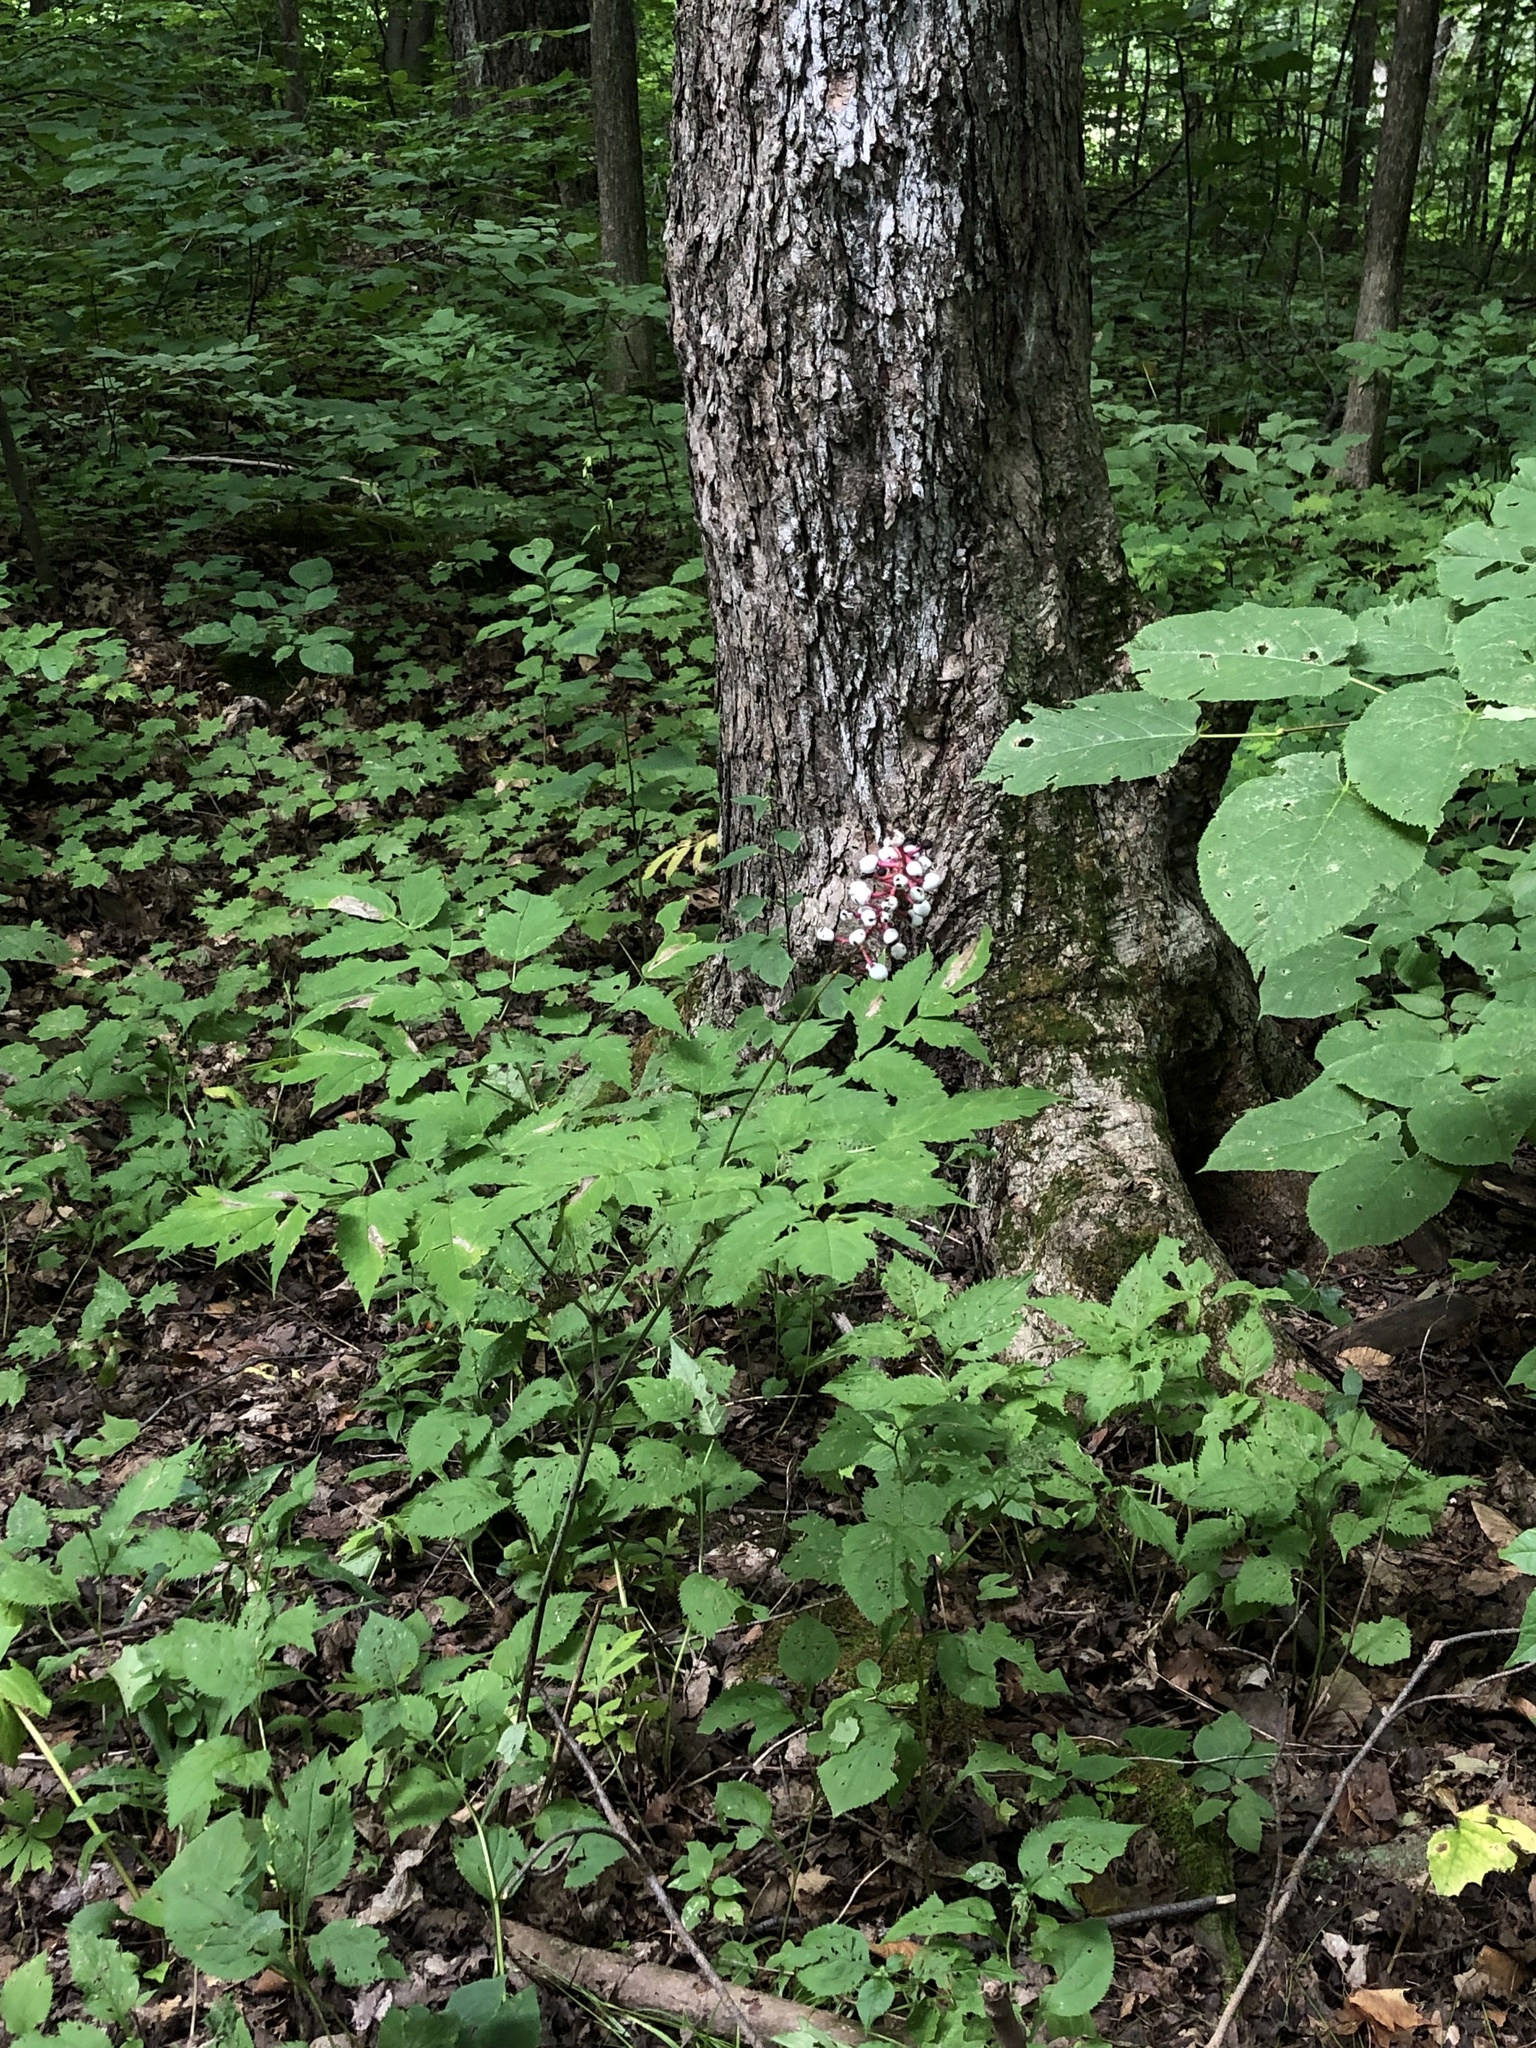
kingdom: Plantae
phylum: Tracheophyta
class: Magnoliopsida
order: Ranunculales
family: Ranunculaceae
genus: Actaea
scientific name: Actaea pachypoda
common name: Doll's-eyes
